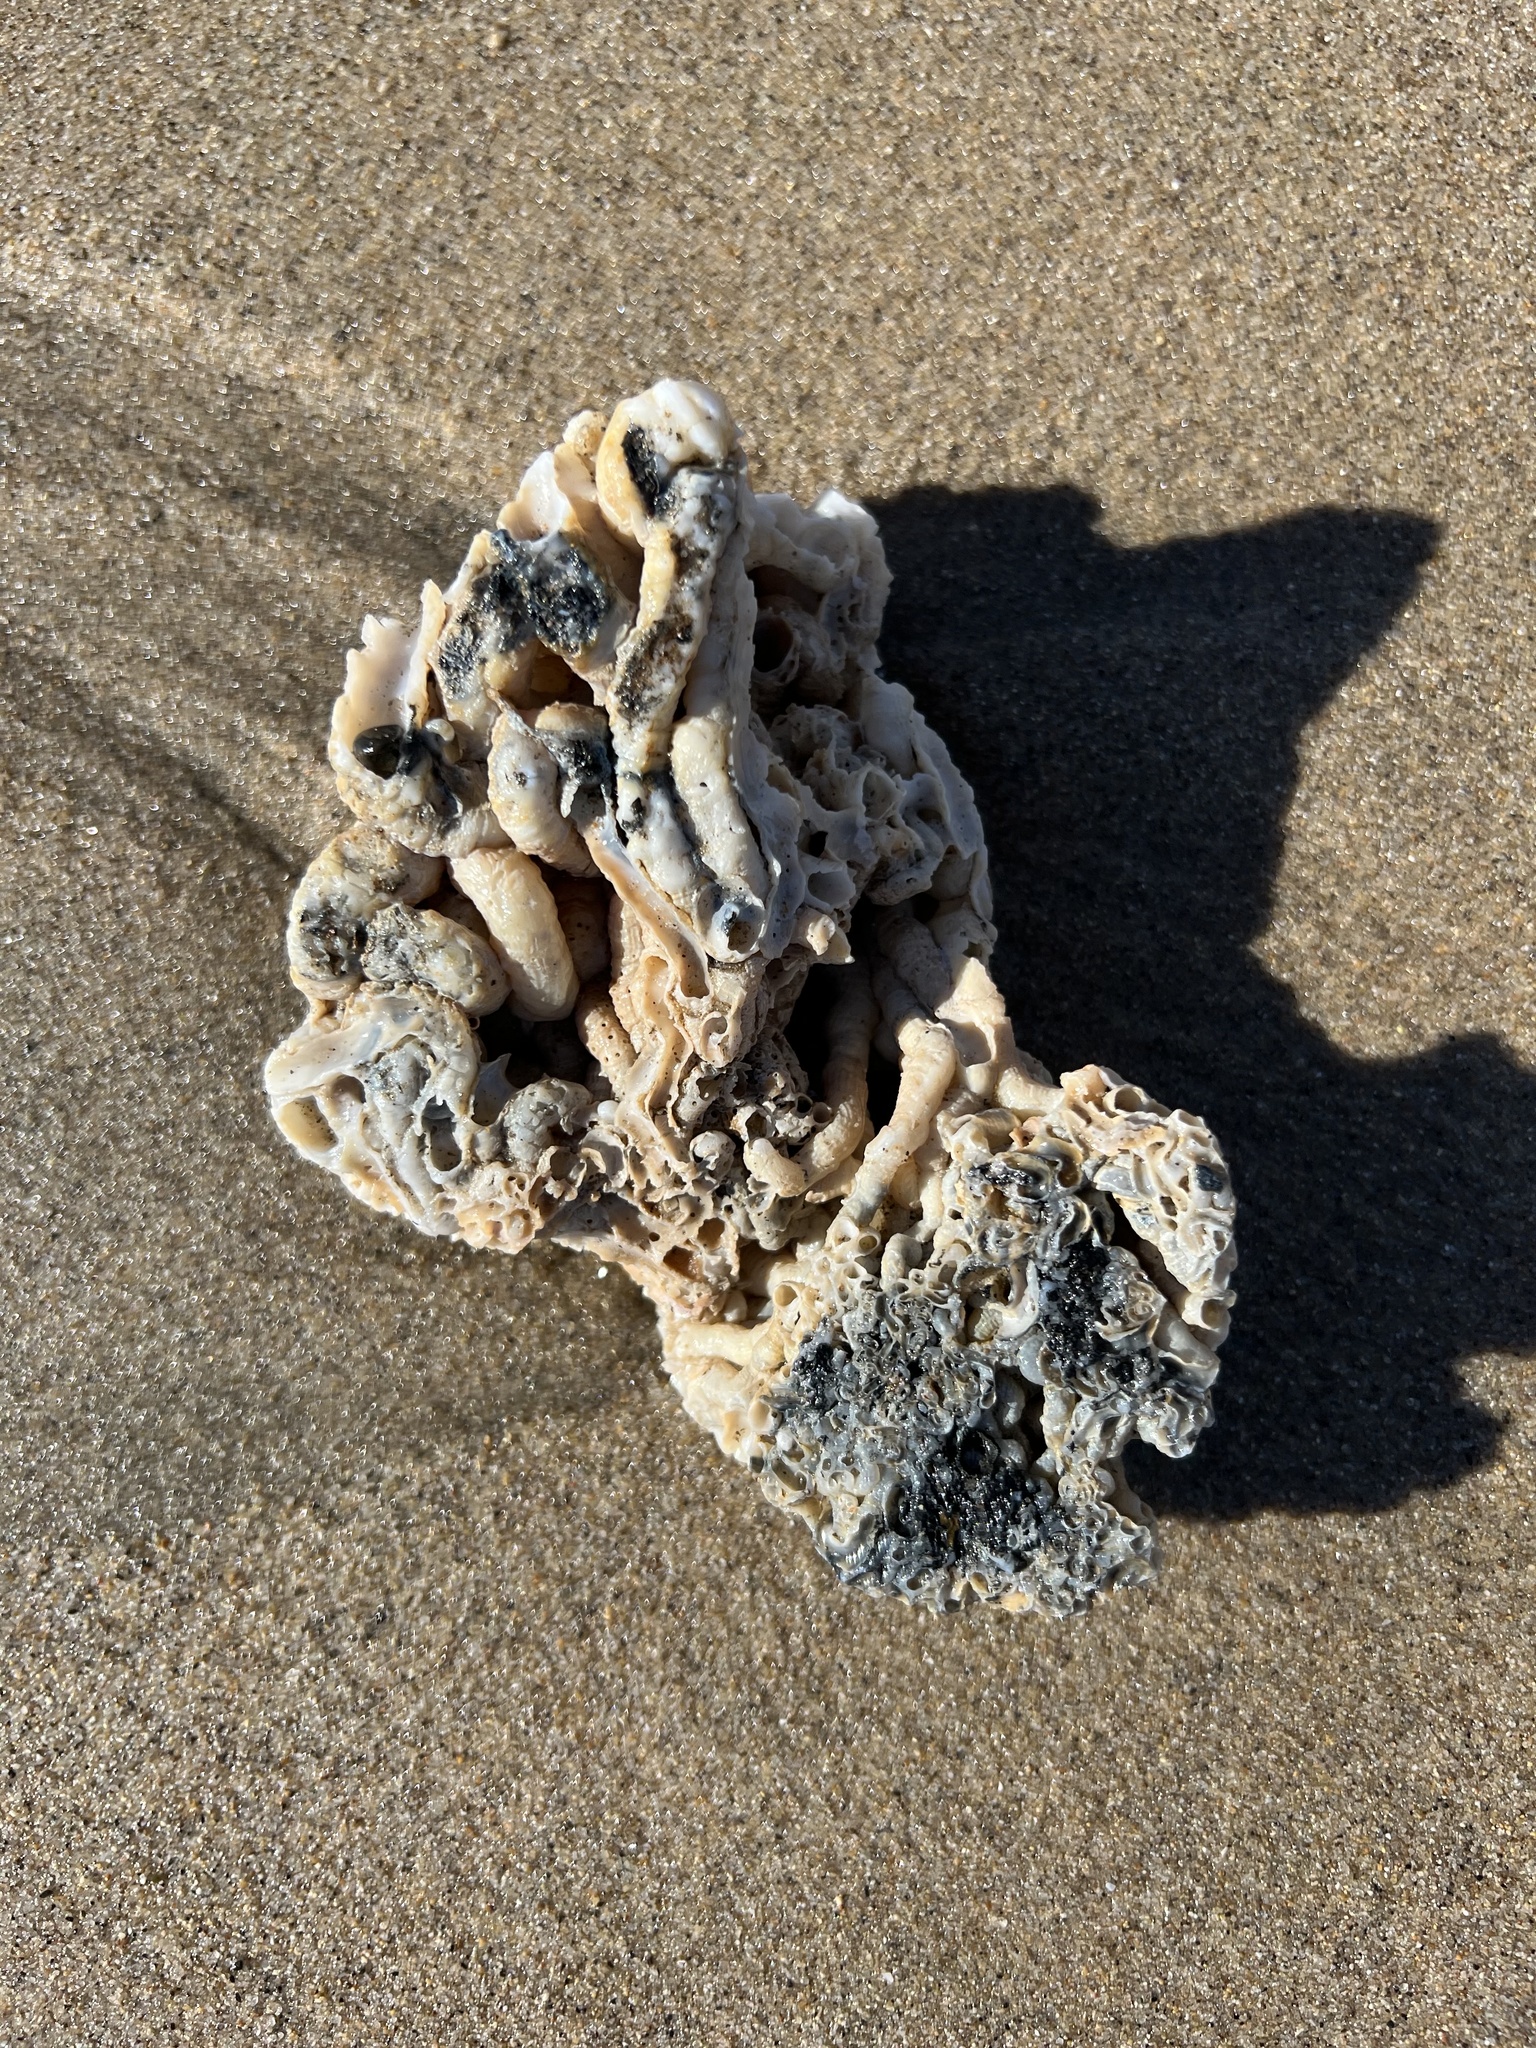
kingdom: Animalia
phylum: Mollusca
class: Gastropoda
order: Littorinimorpha
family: Vermetidae
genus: Thylacodes
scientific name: Thylacodes squamigerus
